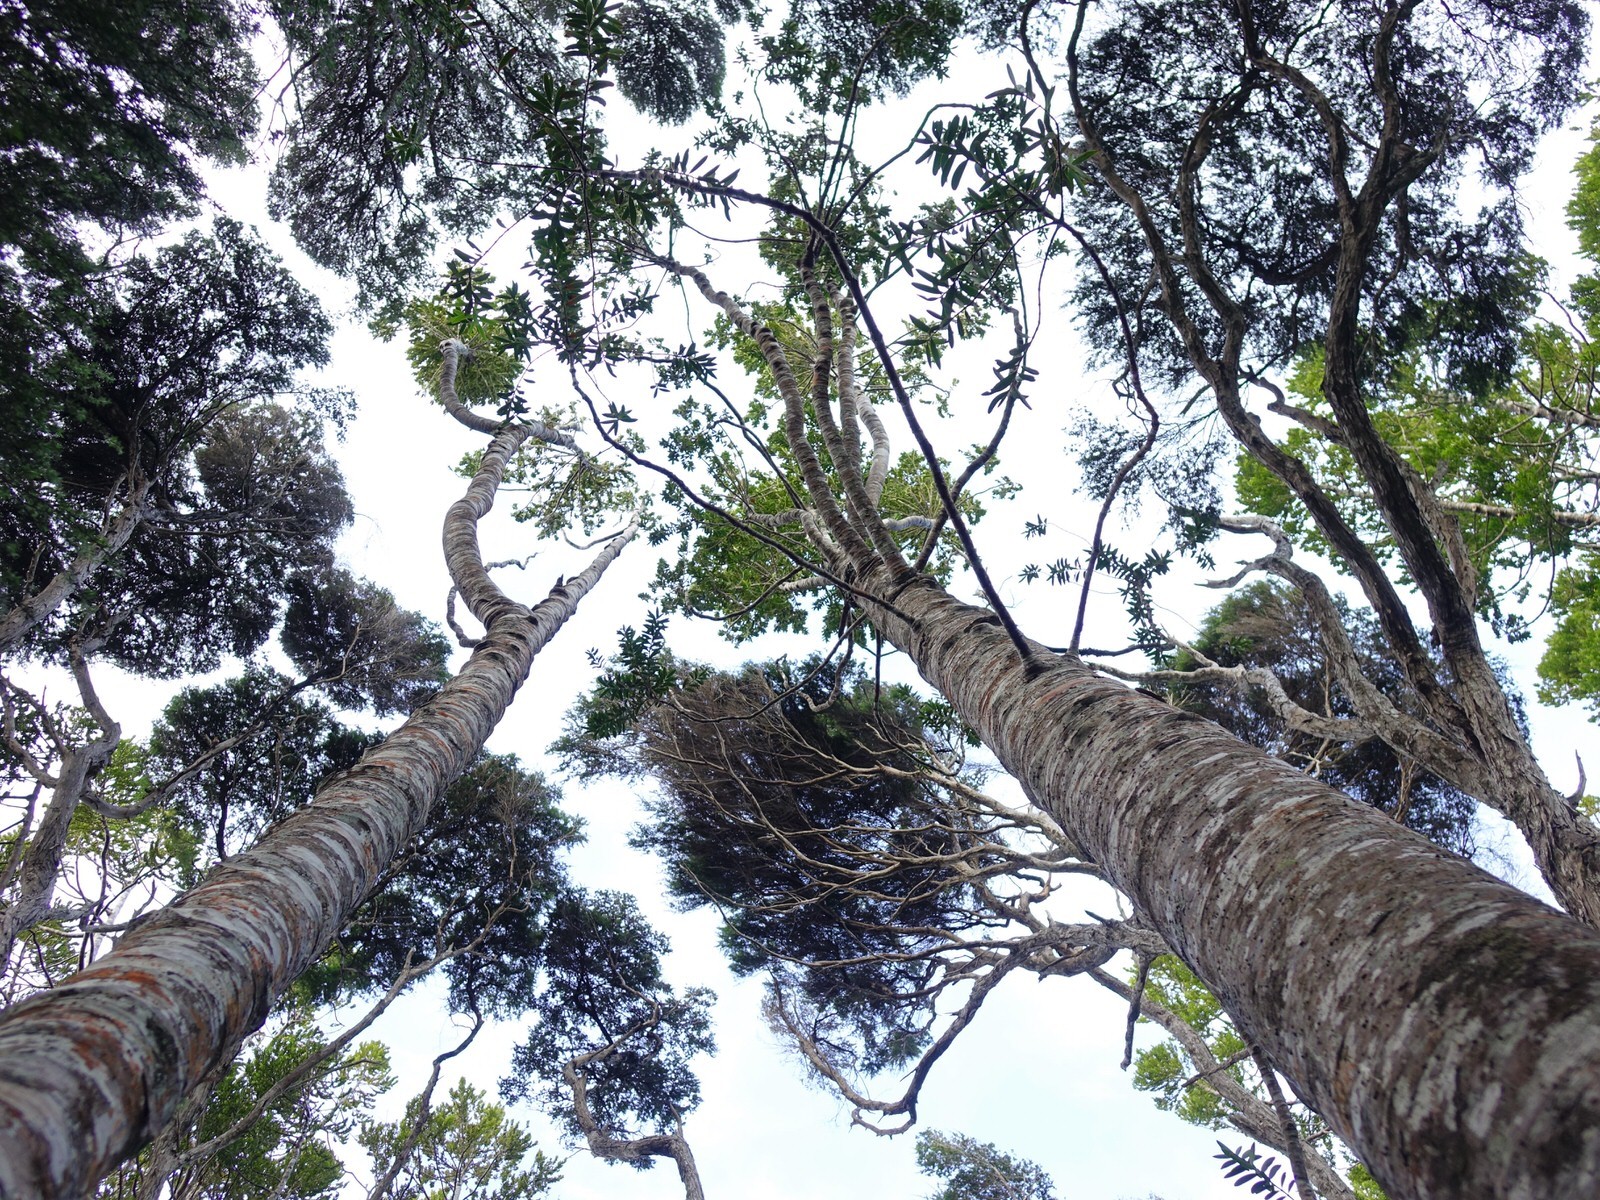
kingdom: Plantae
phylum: Tracheophyta
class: Pinopsida
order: Pinales
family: Araucariaceae
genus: Agathis
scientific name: Agathis australis
